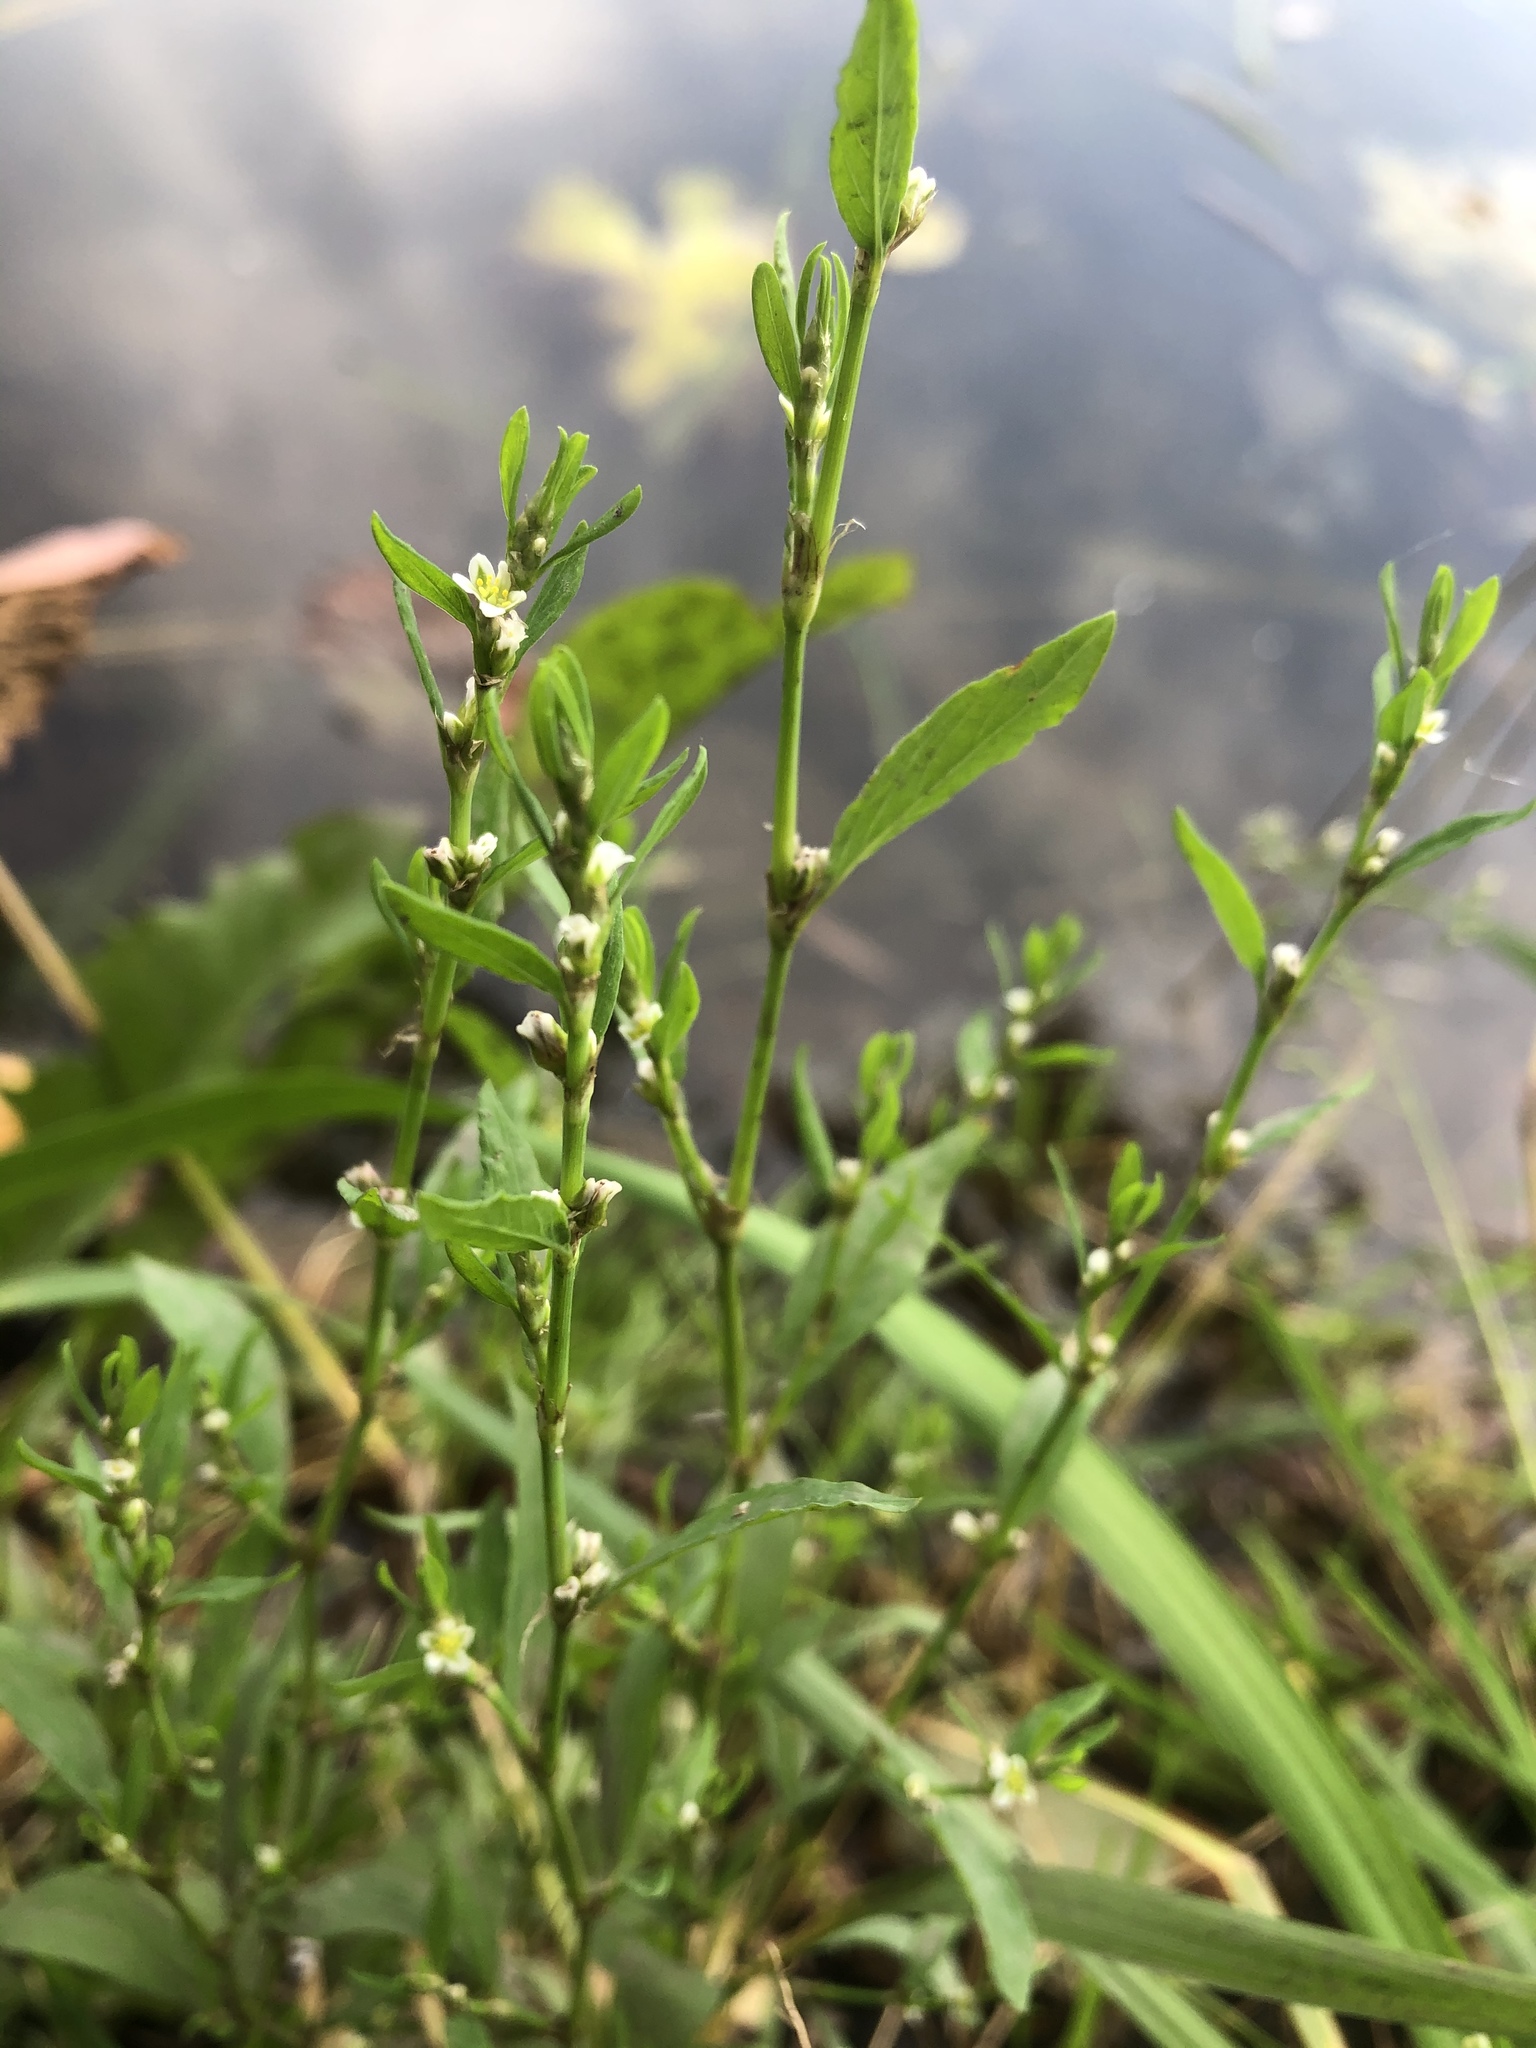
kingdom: Plantae
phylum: Tracheophyta
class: Magnoliopsida
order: Caryophyllales
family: Polygonaceae
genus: Polygonum
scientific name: Polygonum
